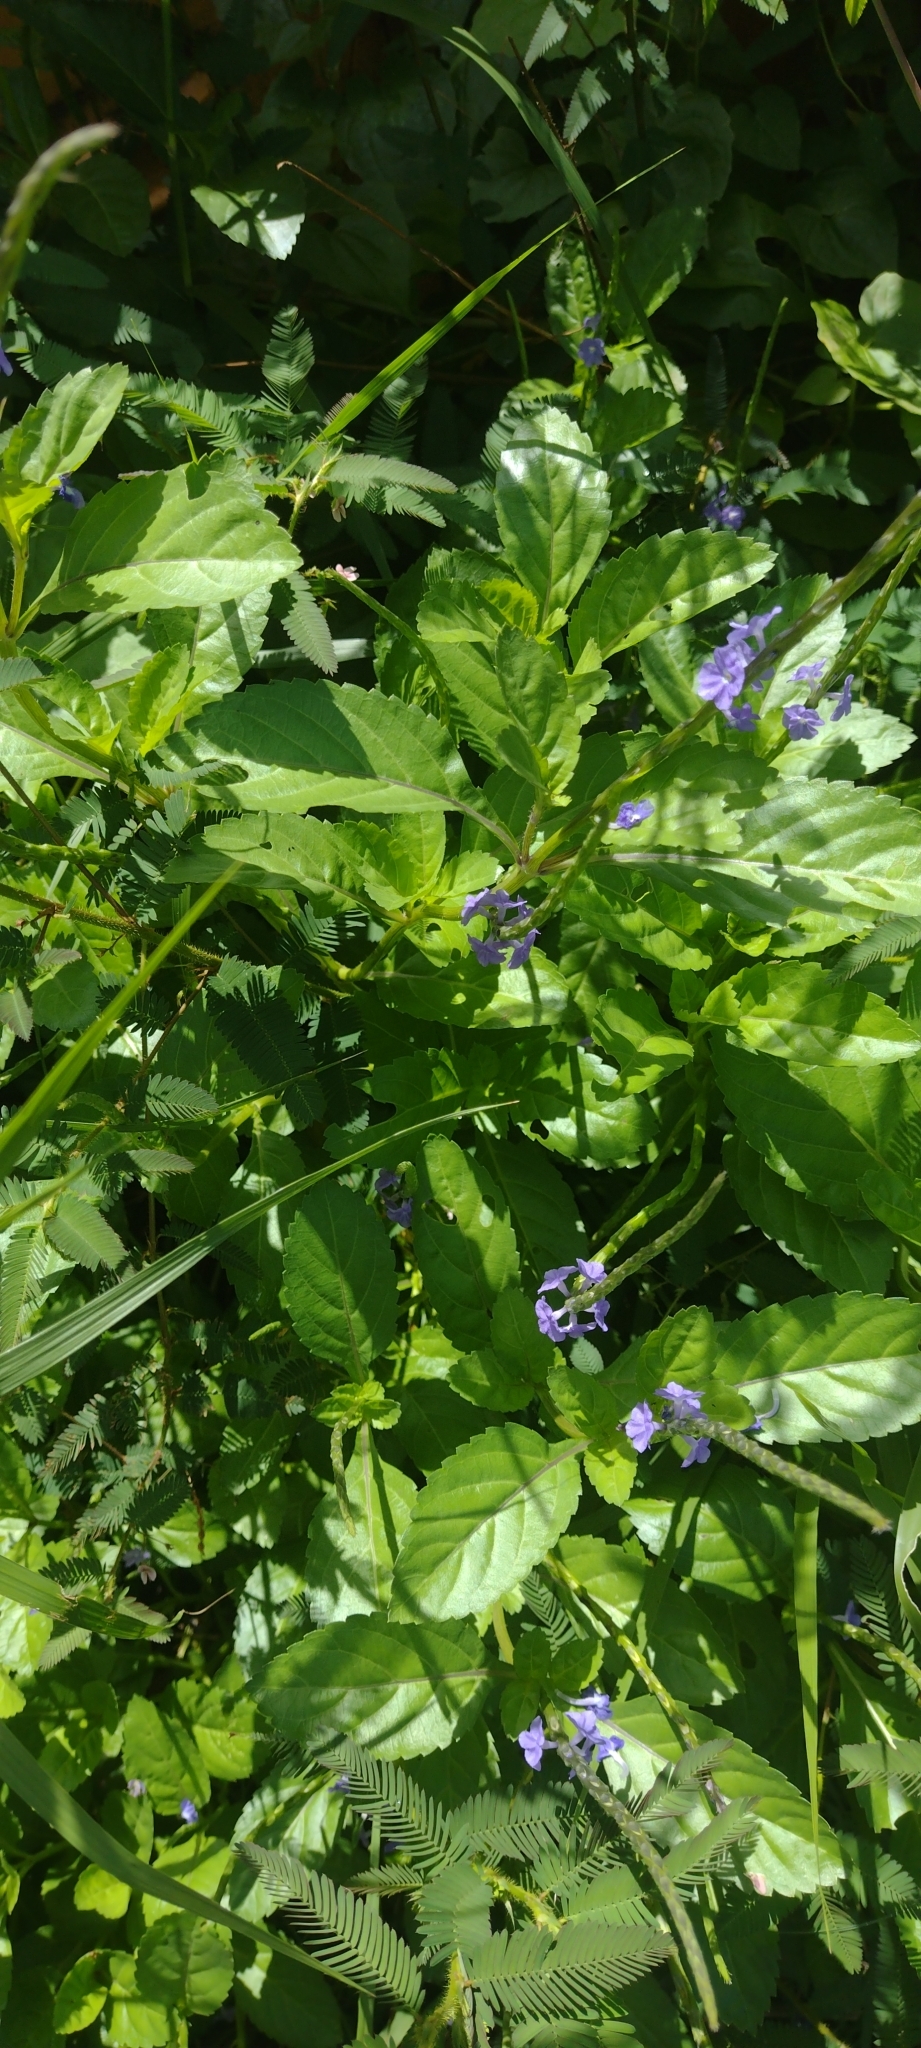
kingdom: Plantae
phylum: Tracheophyta
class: Magnoliopsida
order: Lamiales
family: Verbenaceae
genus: Stachytarpheta
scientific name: Stachytarpheta jamaicensis
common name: Light-blue snakeweed
